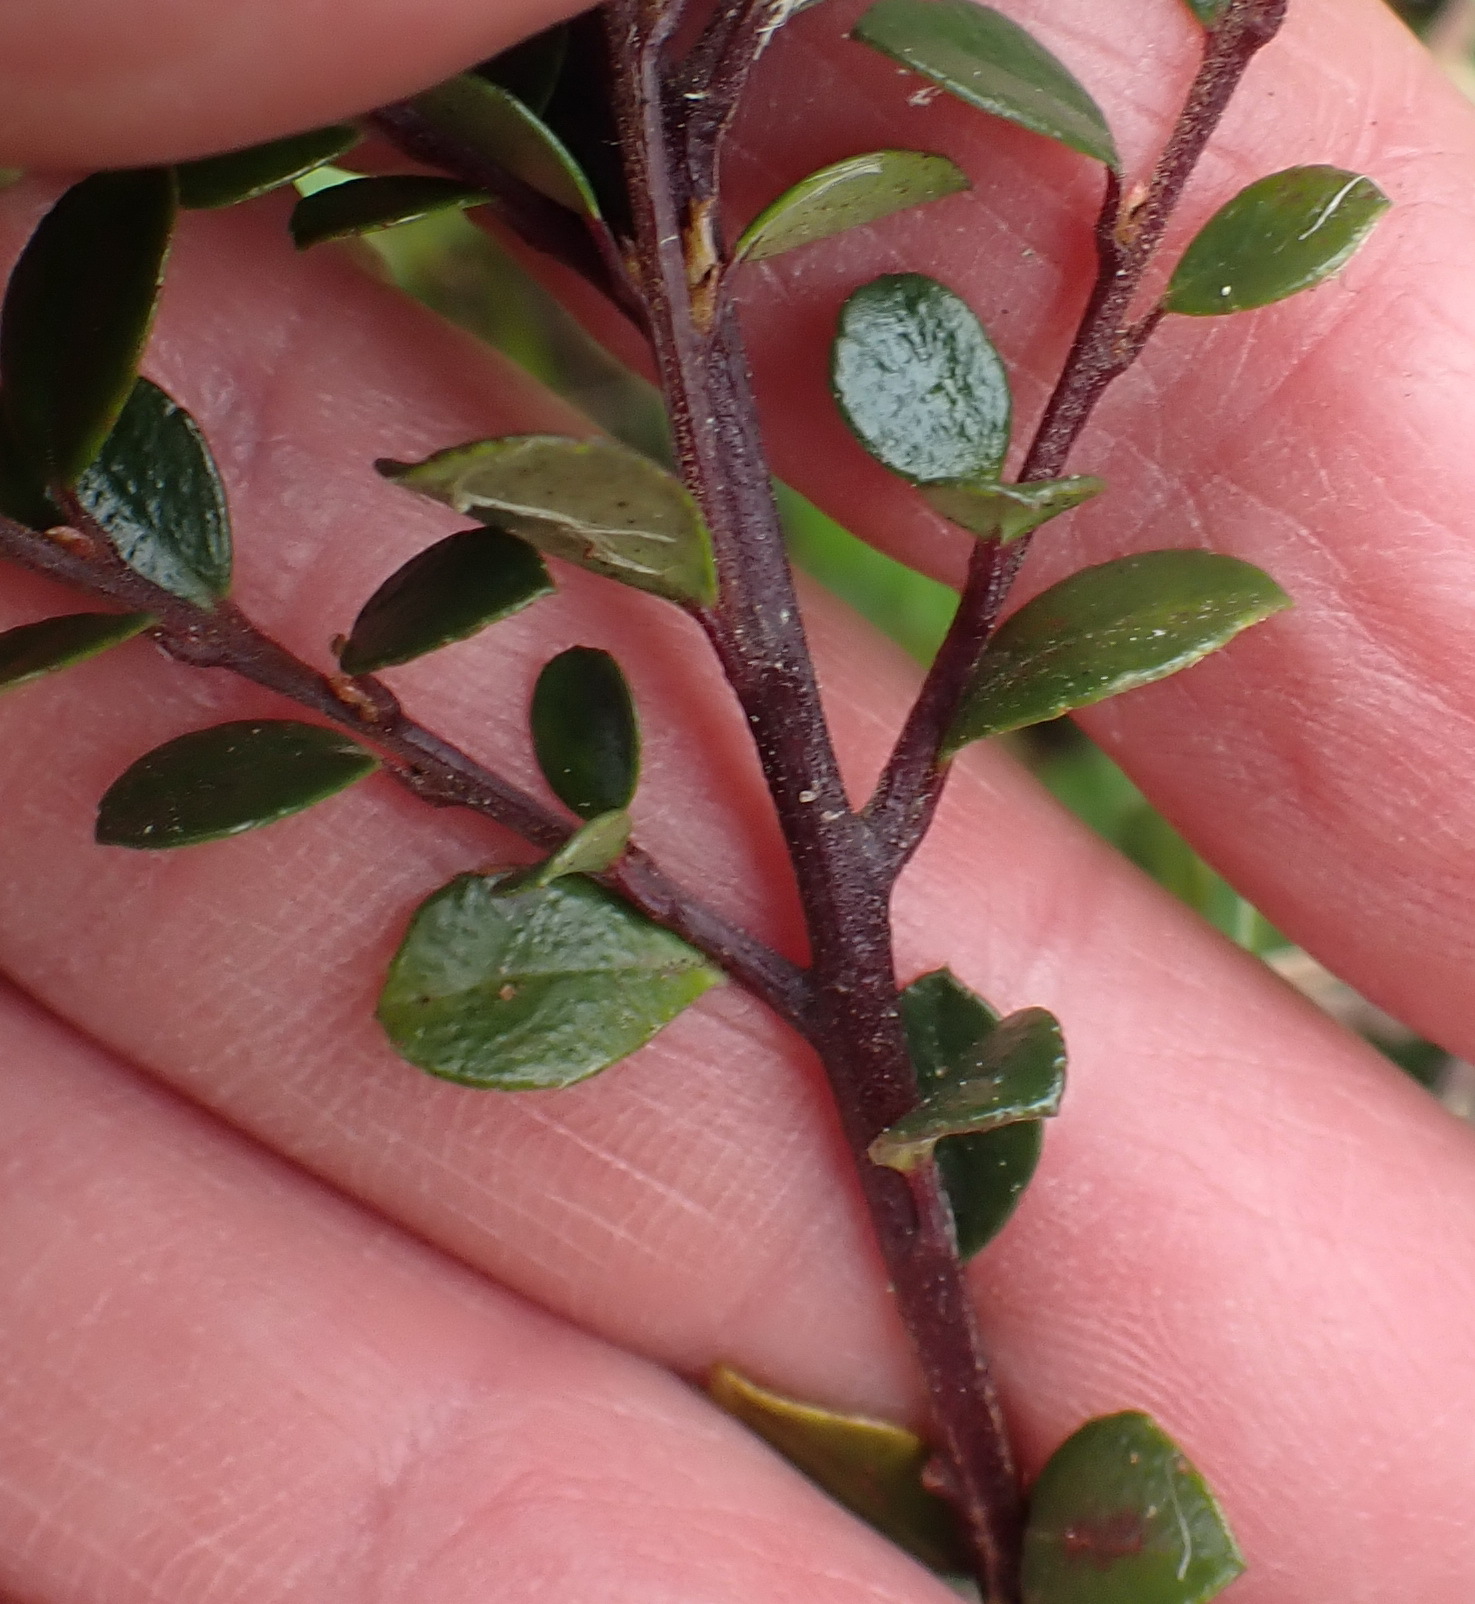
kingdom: Plantae
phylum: Tracheophyta
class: Magnoliopsida
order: Ericales
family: Primulaceae
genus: Myrsine
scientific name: Myrsine africana
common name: African-boxwood
